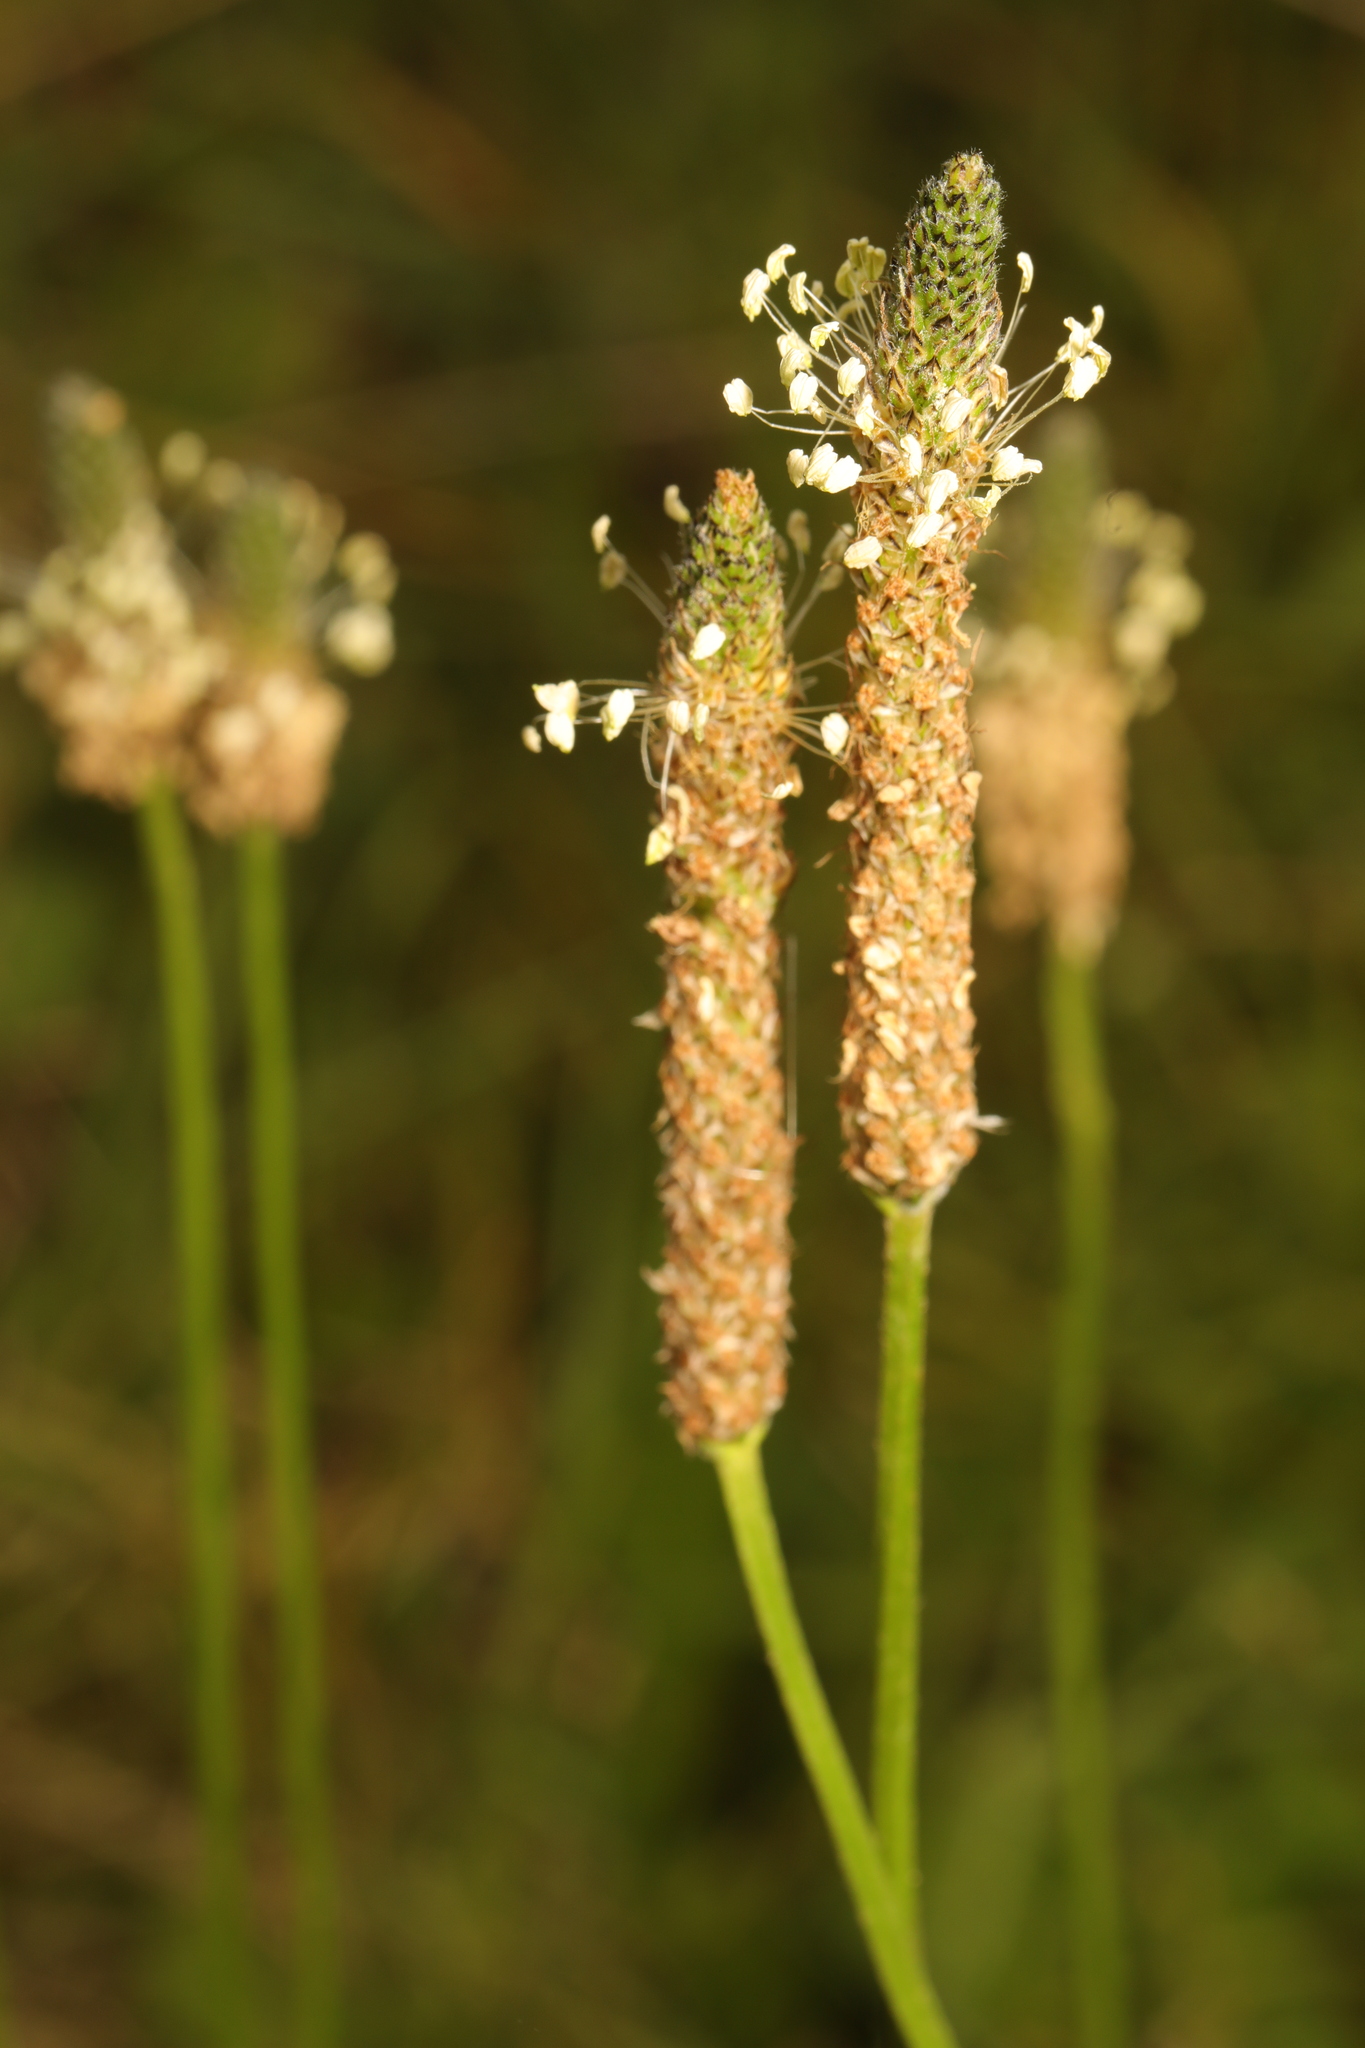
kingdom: Plantae
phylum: Tracheophyta
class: Magnoliopsida
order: Lamiales
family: Plantaginaceae
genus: Plantago
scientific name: Plantago lanceolata
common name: Ribwort plantain
